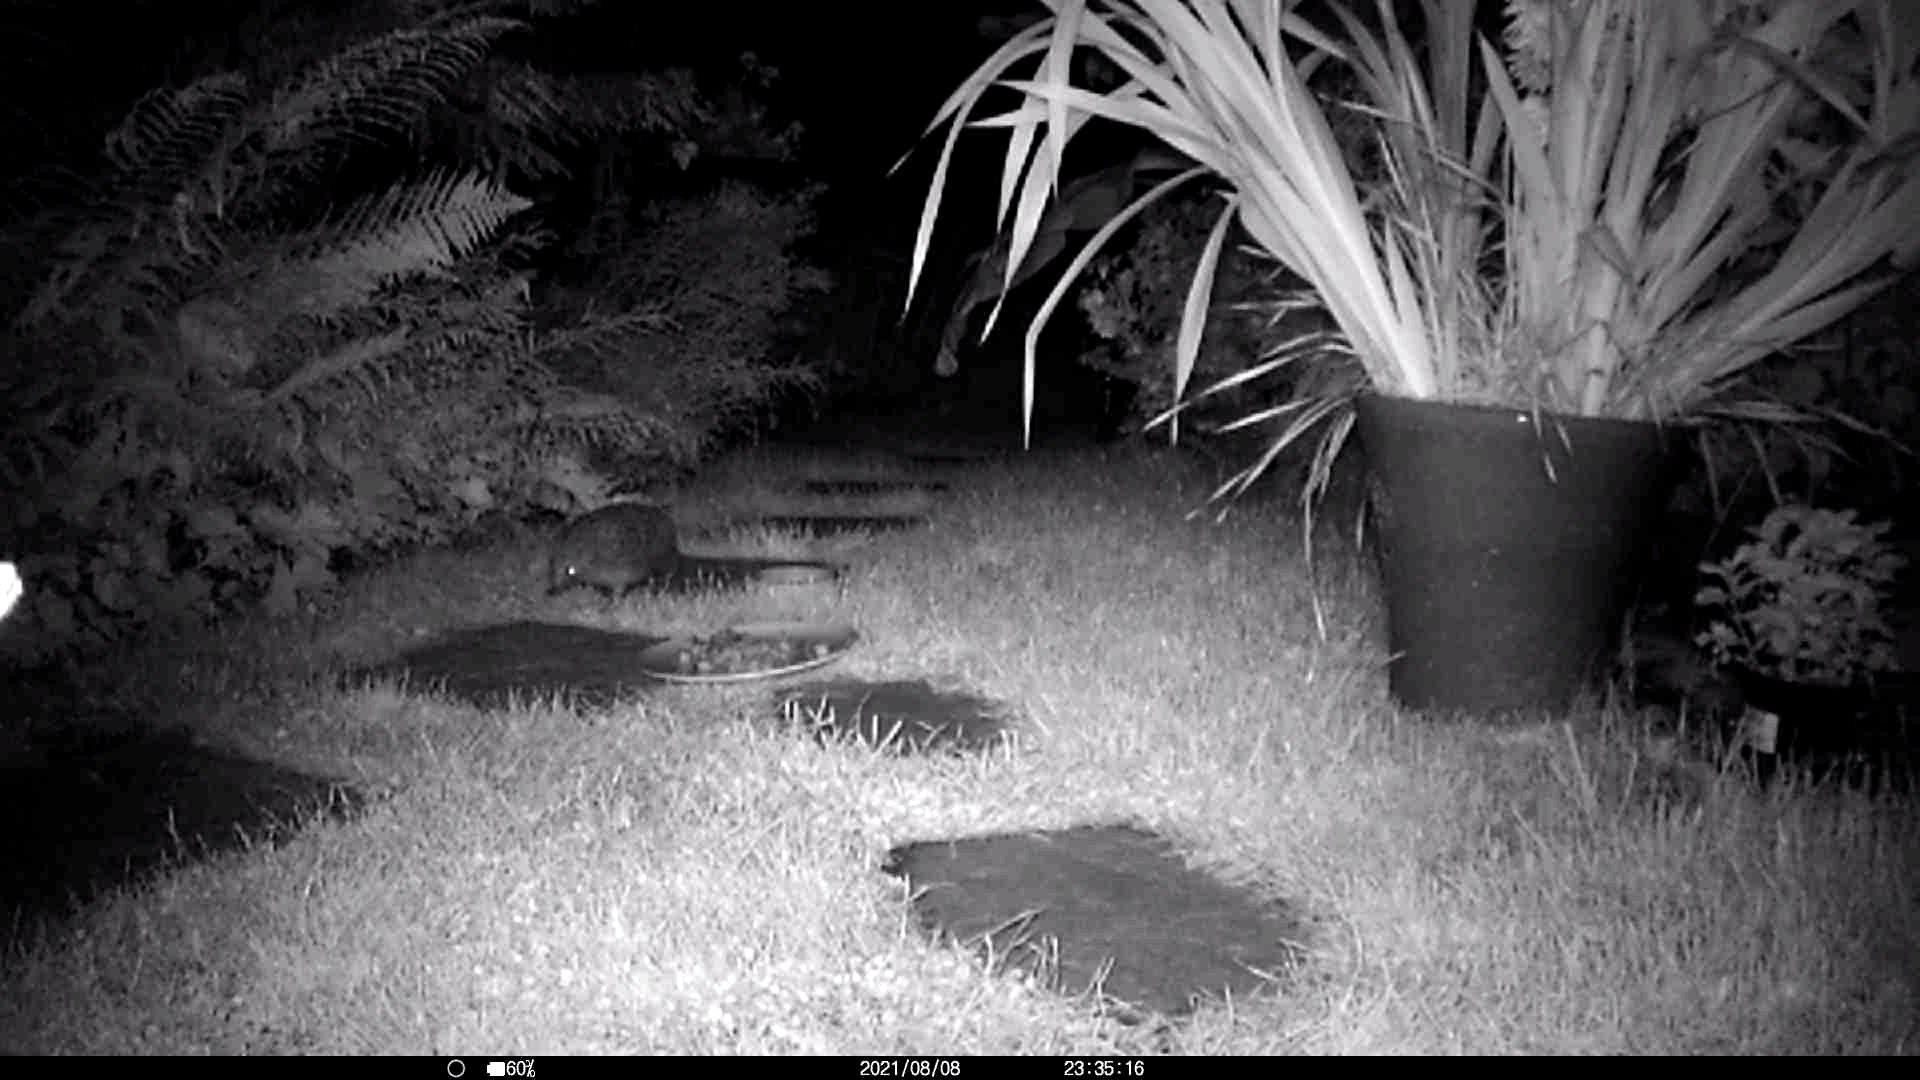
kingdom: Animalia
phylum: Chordata
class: Mammalia
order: Erinaceomorpha
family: Erinaceidae
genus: Erinaceus
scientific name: Erinaceus europaeus
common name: West european hedgehog
